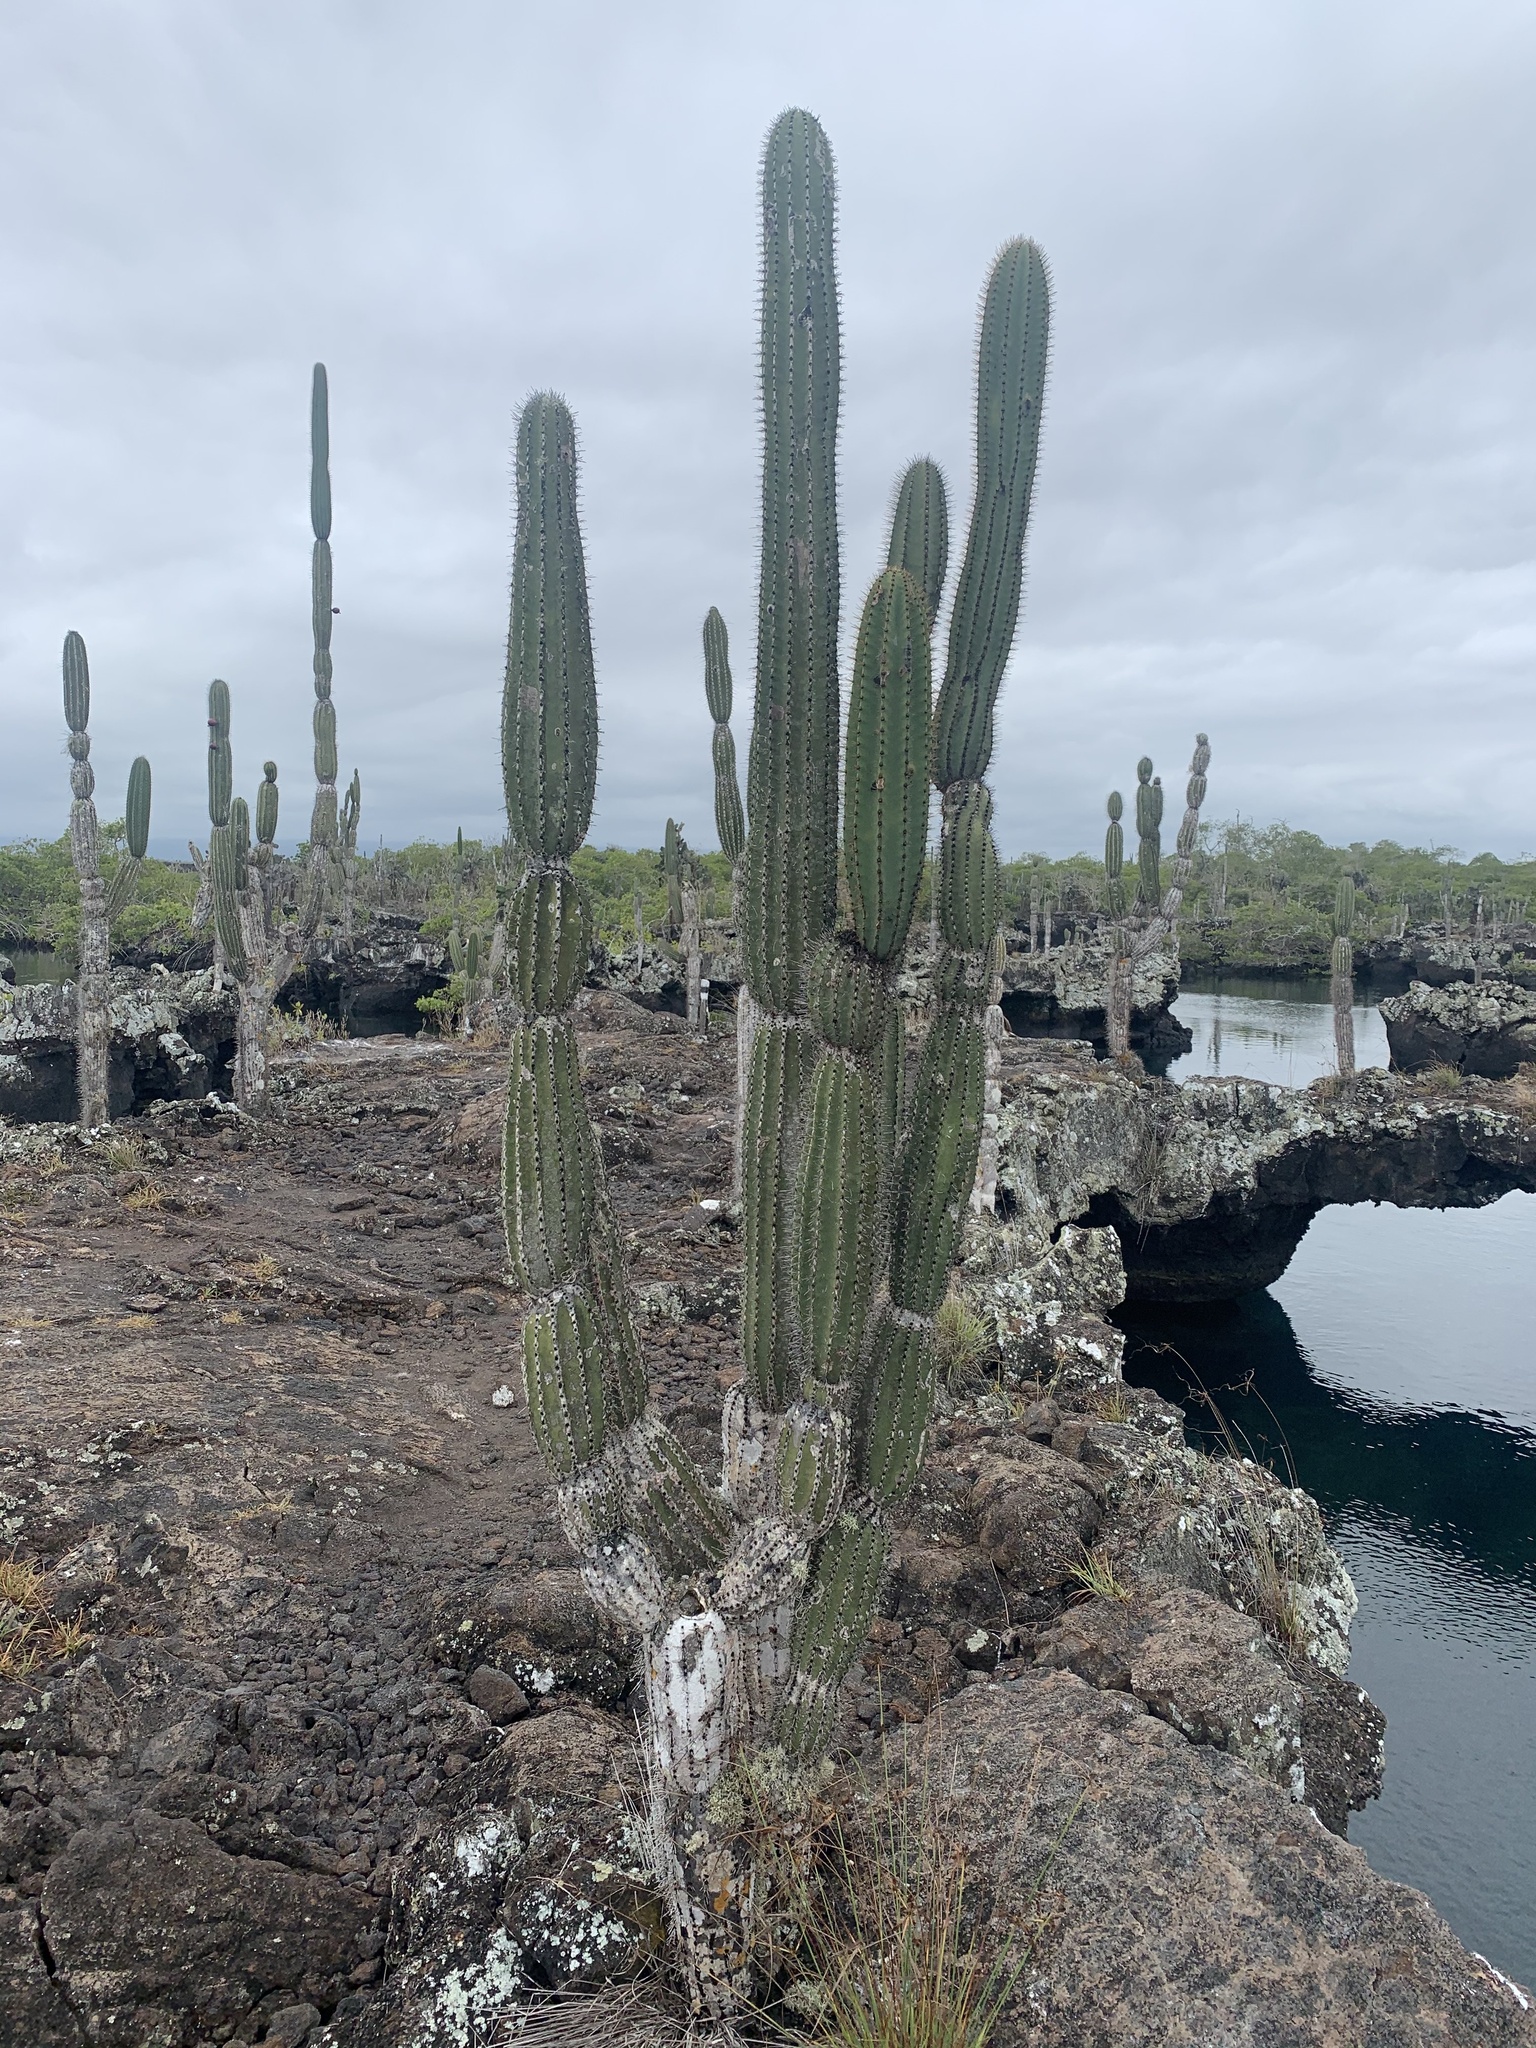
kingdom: Plantae
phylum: Tracheophyta
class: Magnoliopsida
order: Caryophyllales
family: Cactaceae
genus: Jasminocereus
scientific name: Jasminocereus thouarsii
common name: Candelabra cactus
